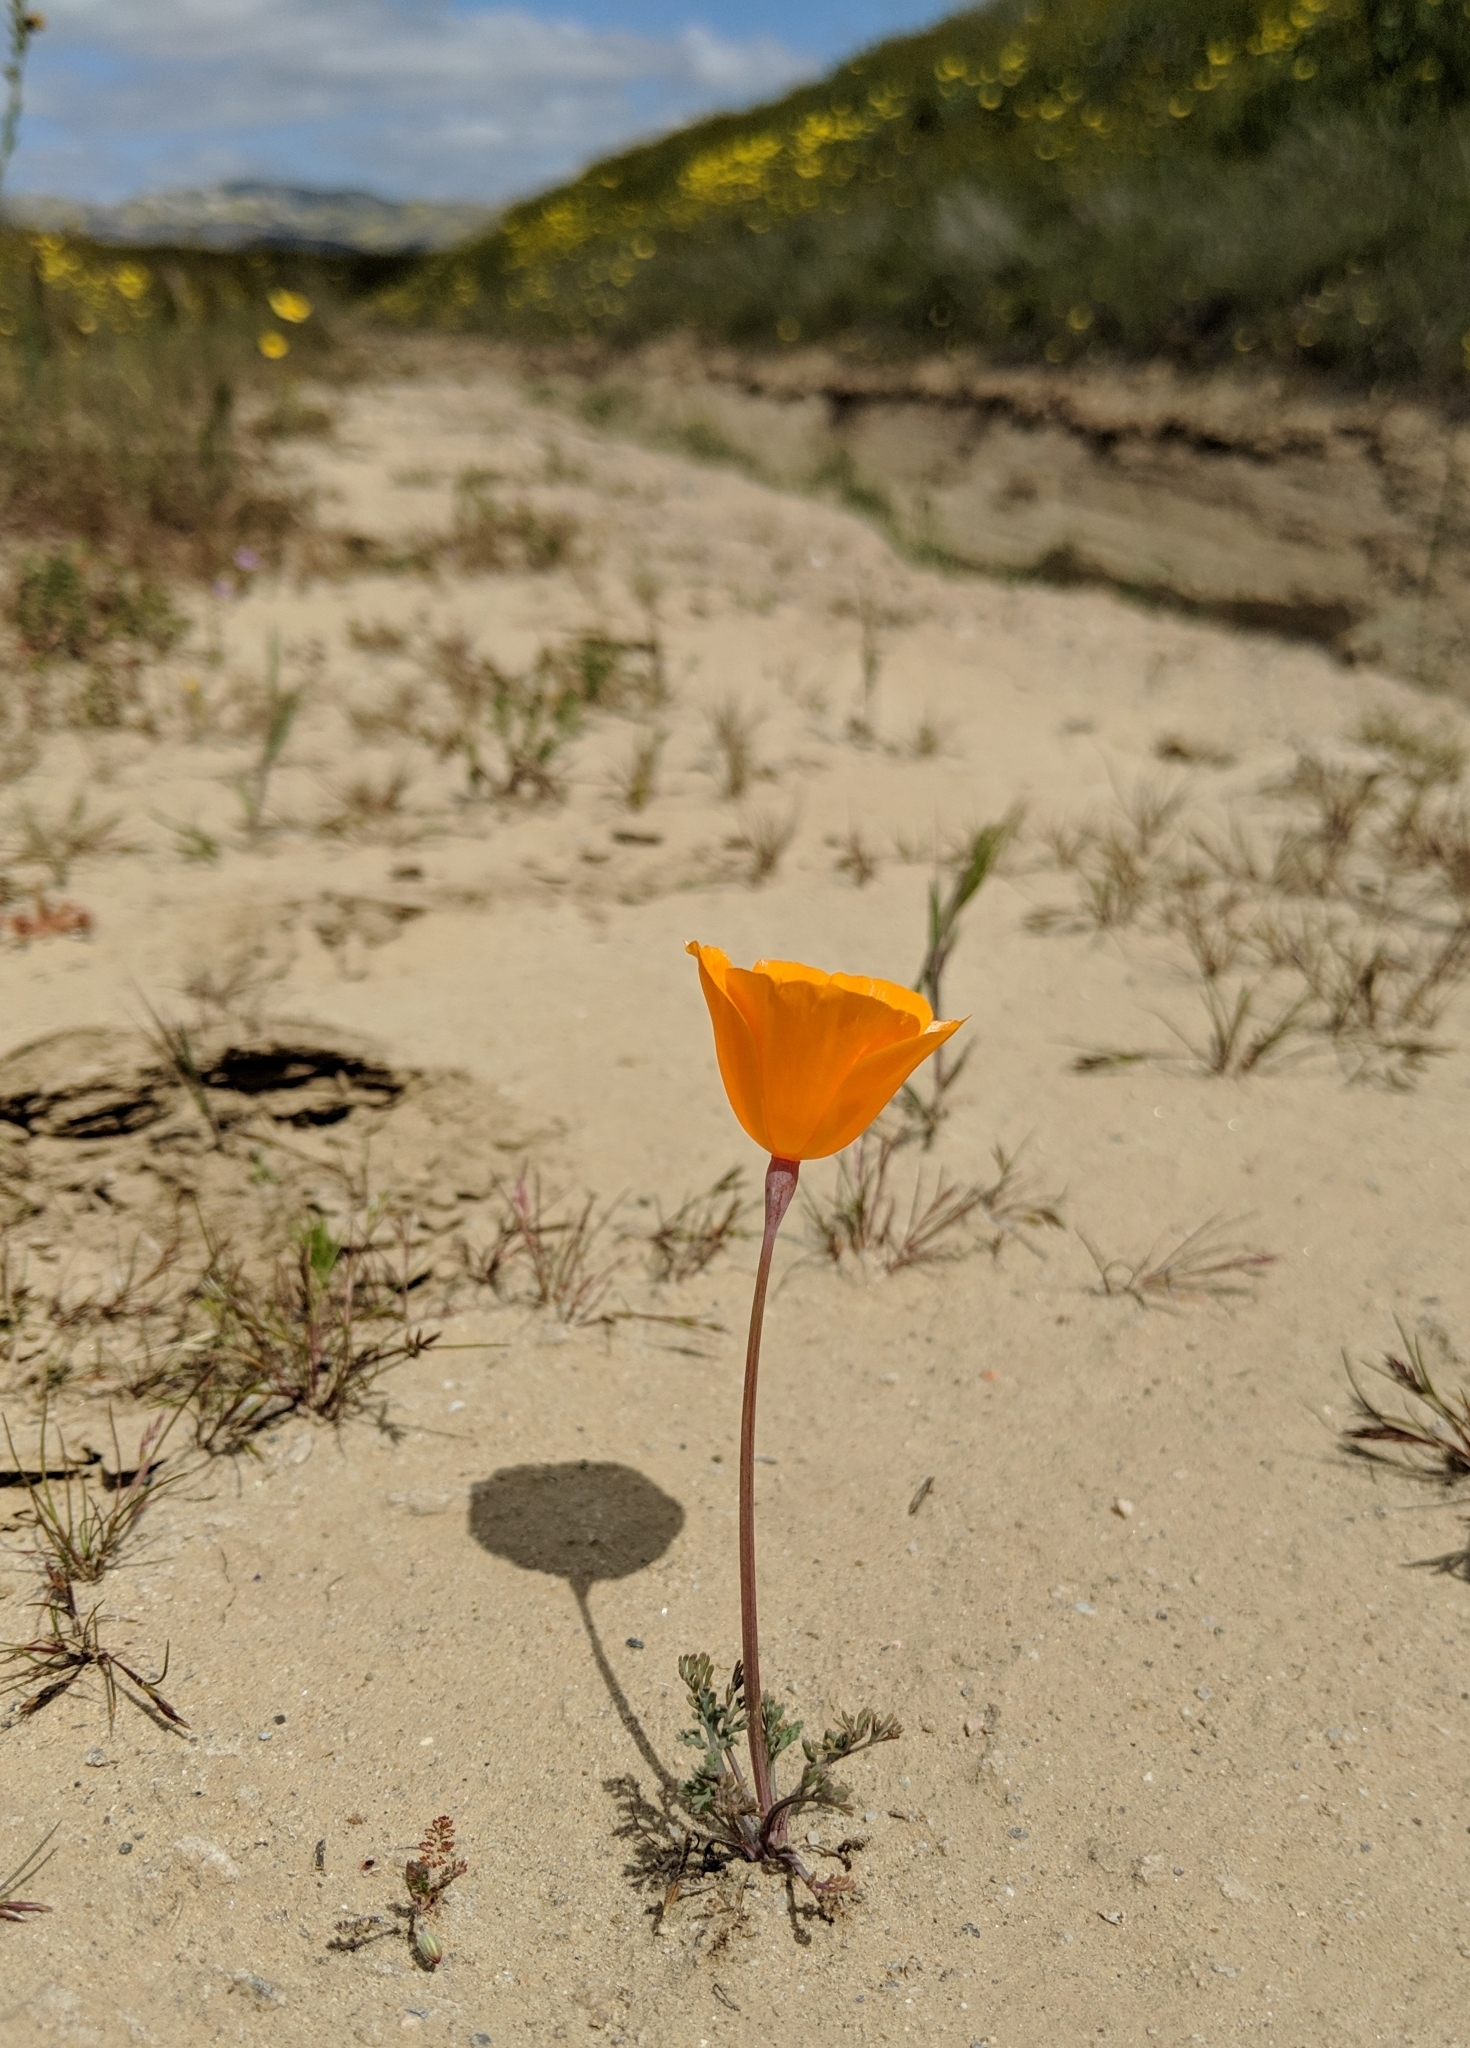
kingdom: Plantae
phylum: Tracheophyta
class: Magnoliopsida
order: Ranunculales
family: Papaveraceae
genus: Eschscholzia
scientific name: Eschscholzia lemmonii
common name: Lemmon's poppy
